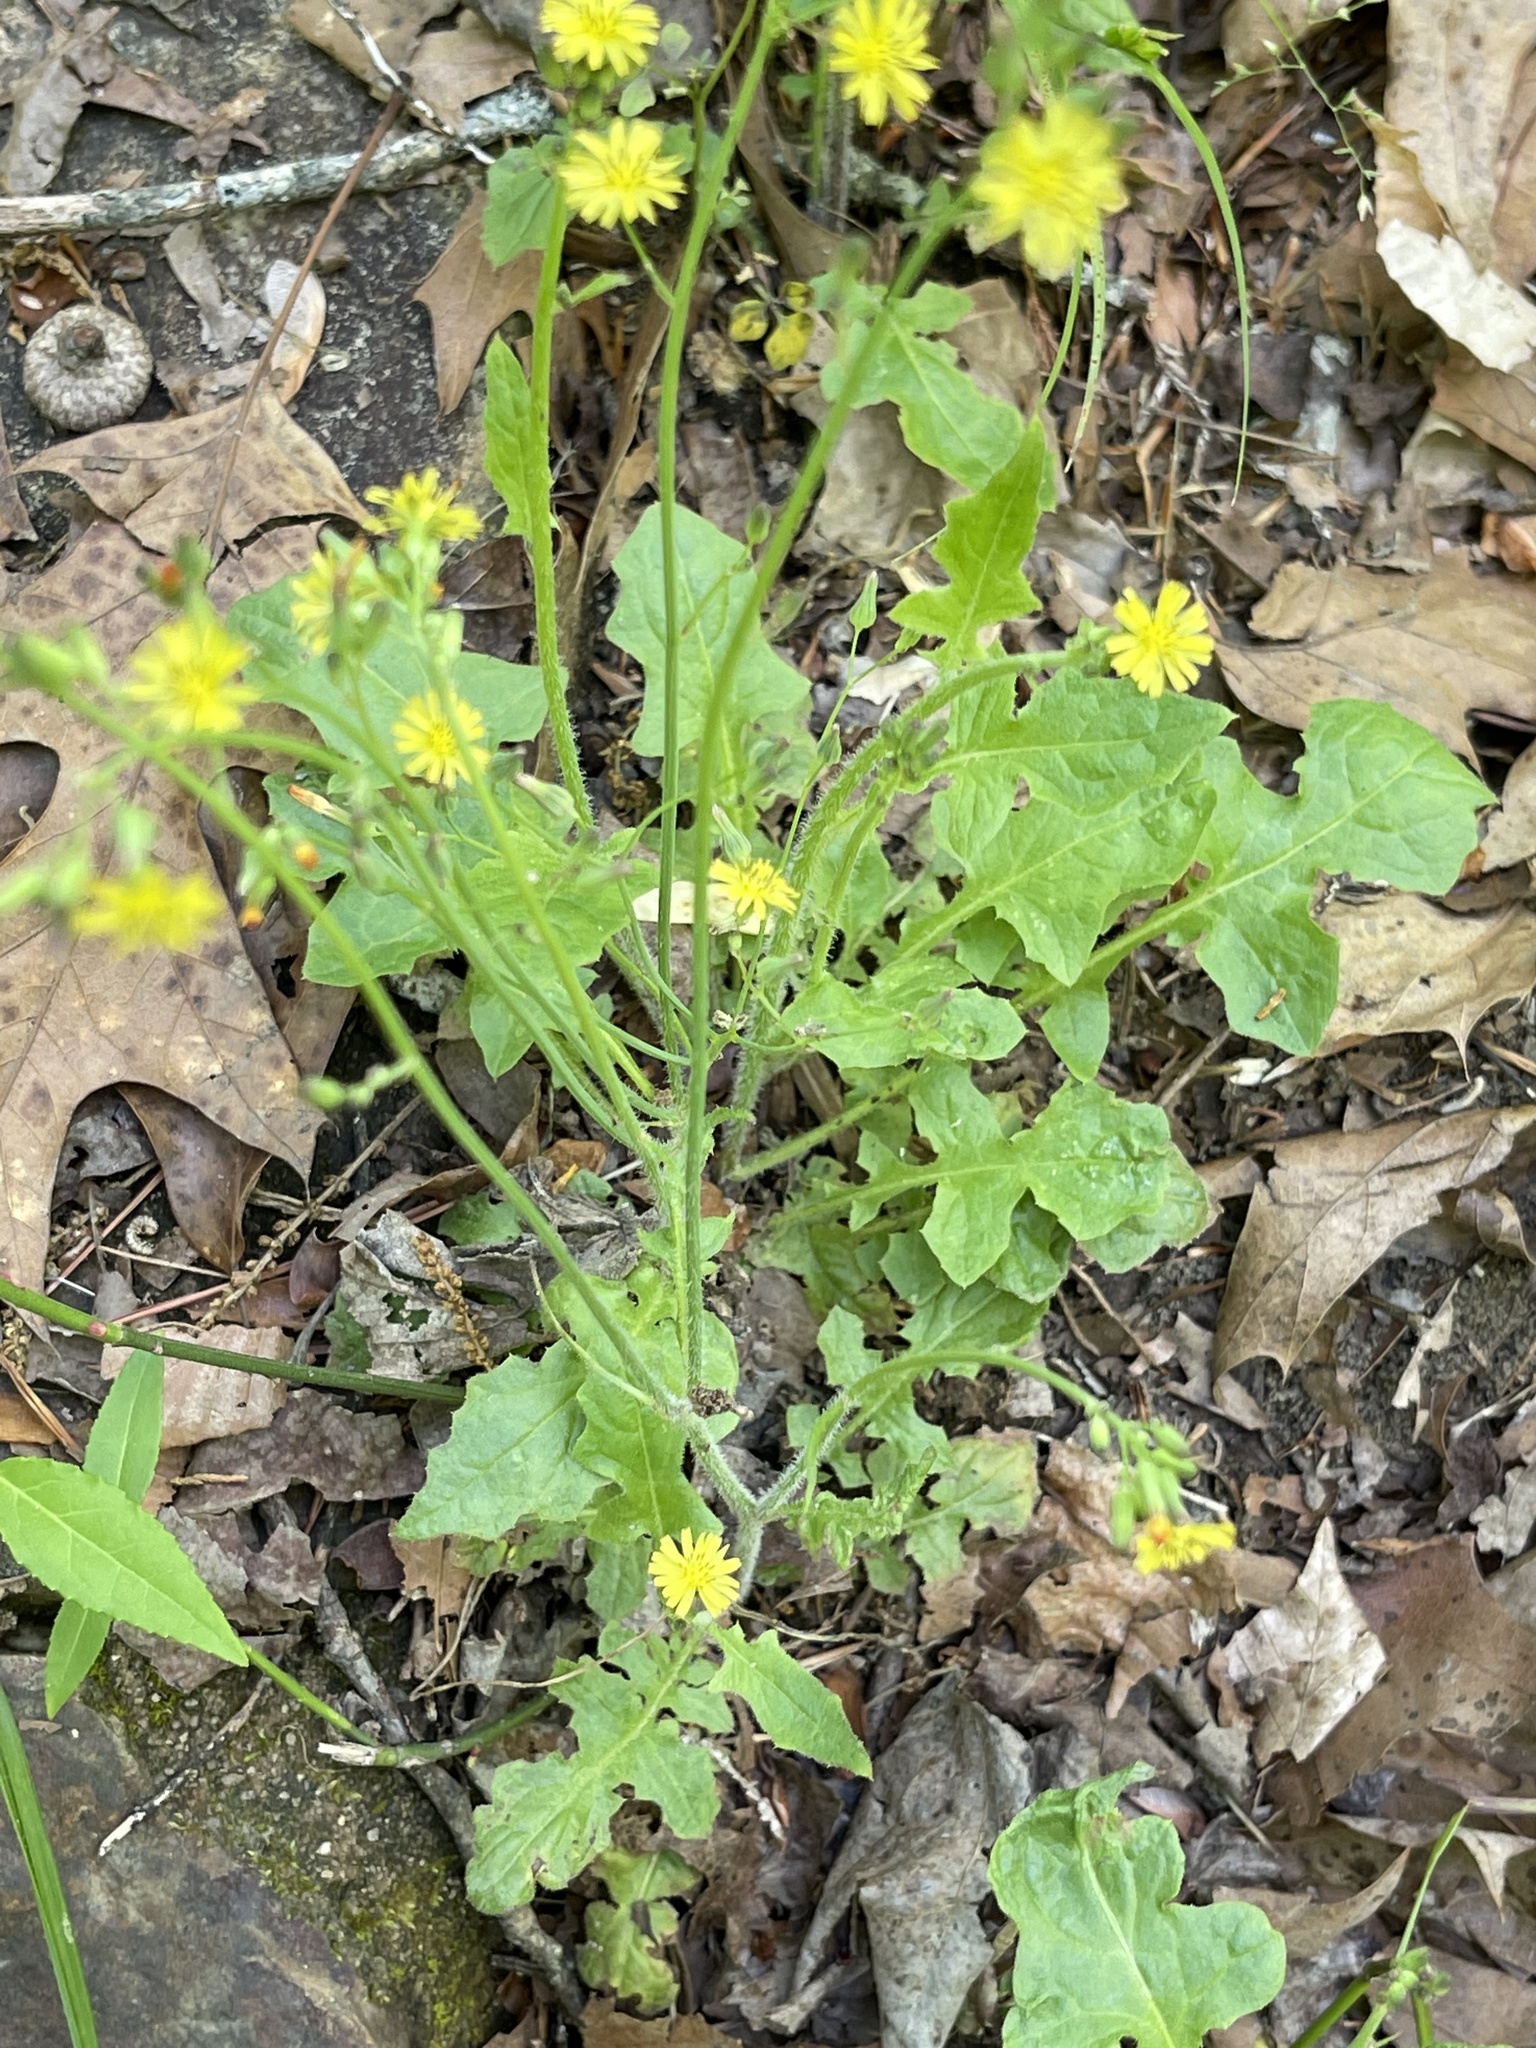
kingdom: Plantae
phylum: Tracheophyta
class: Magnoliopsida
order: Asterales
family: Asteraceae
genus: Youngia
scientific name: Youngia japonica
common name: Oriental false hawksbeard
